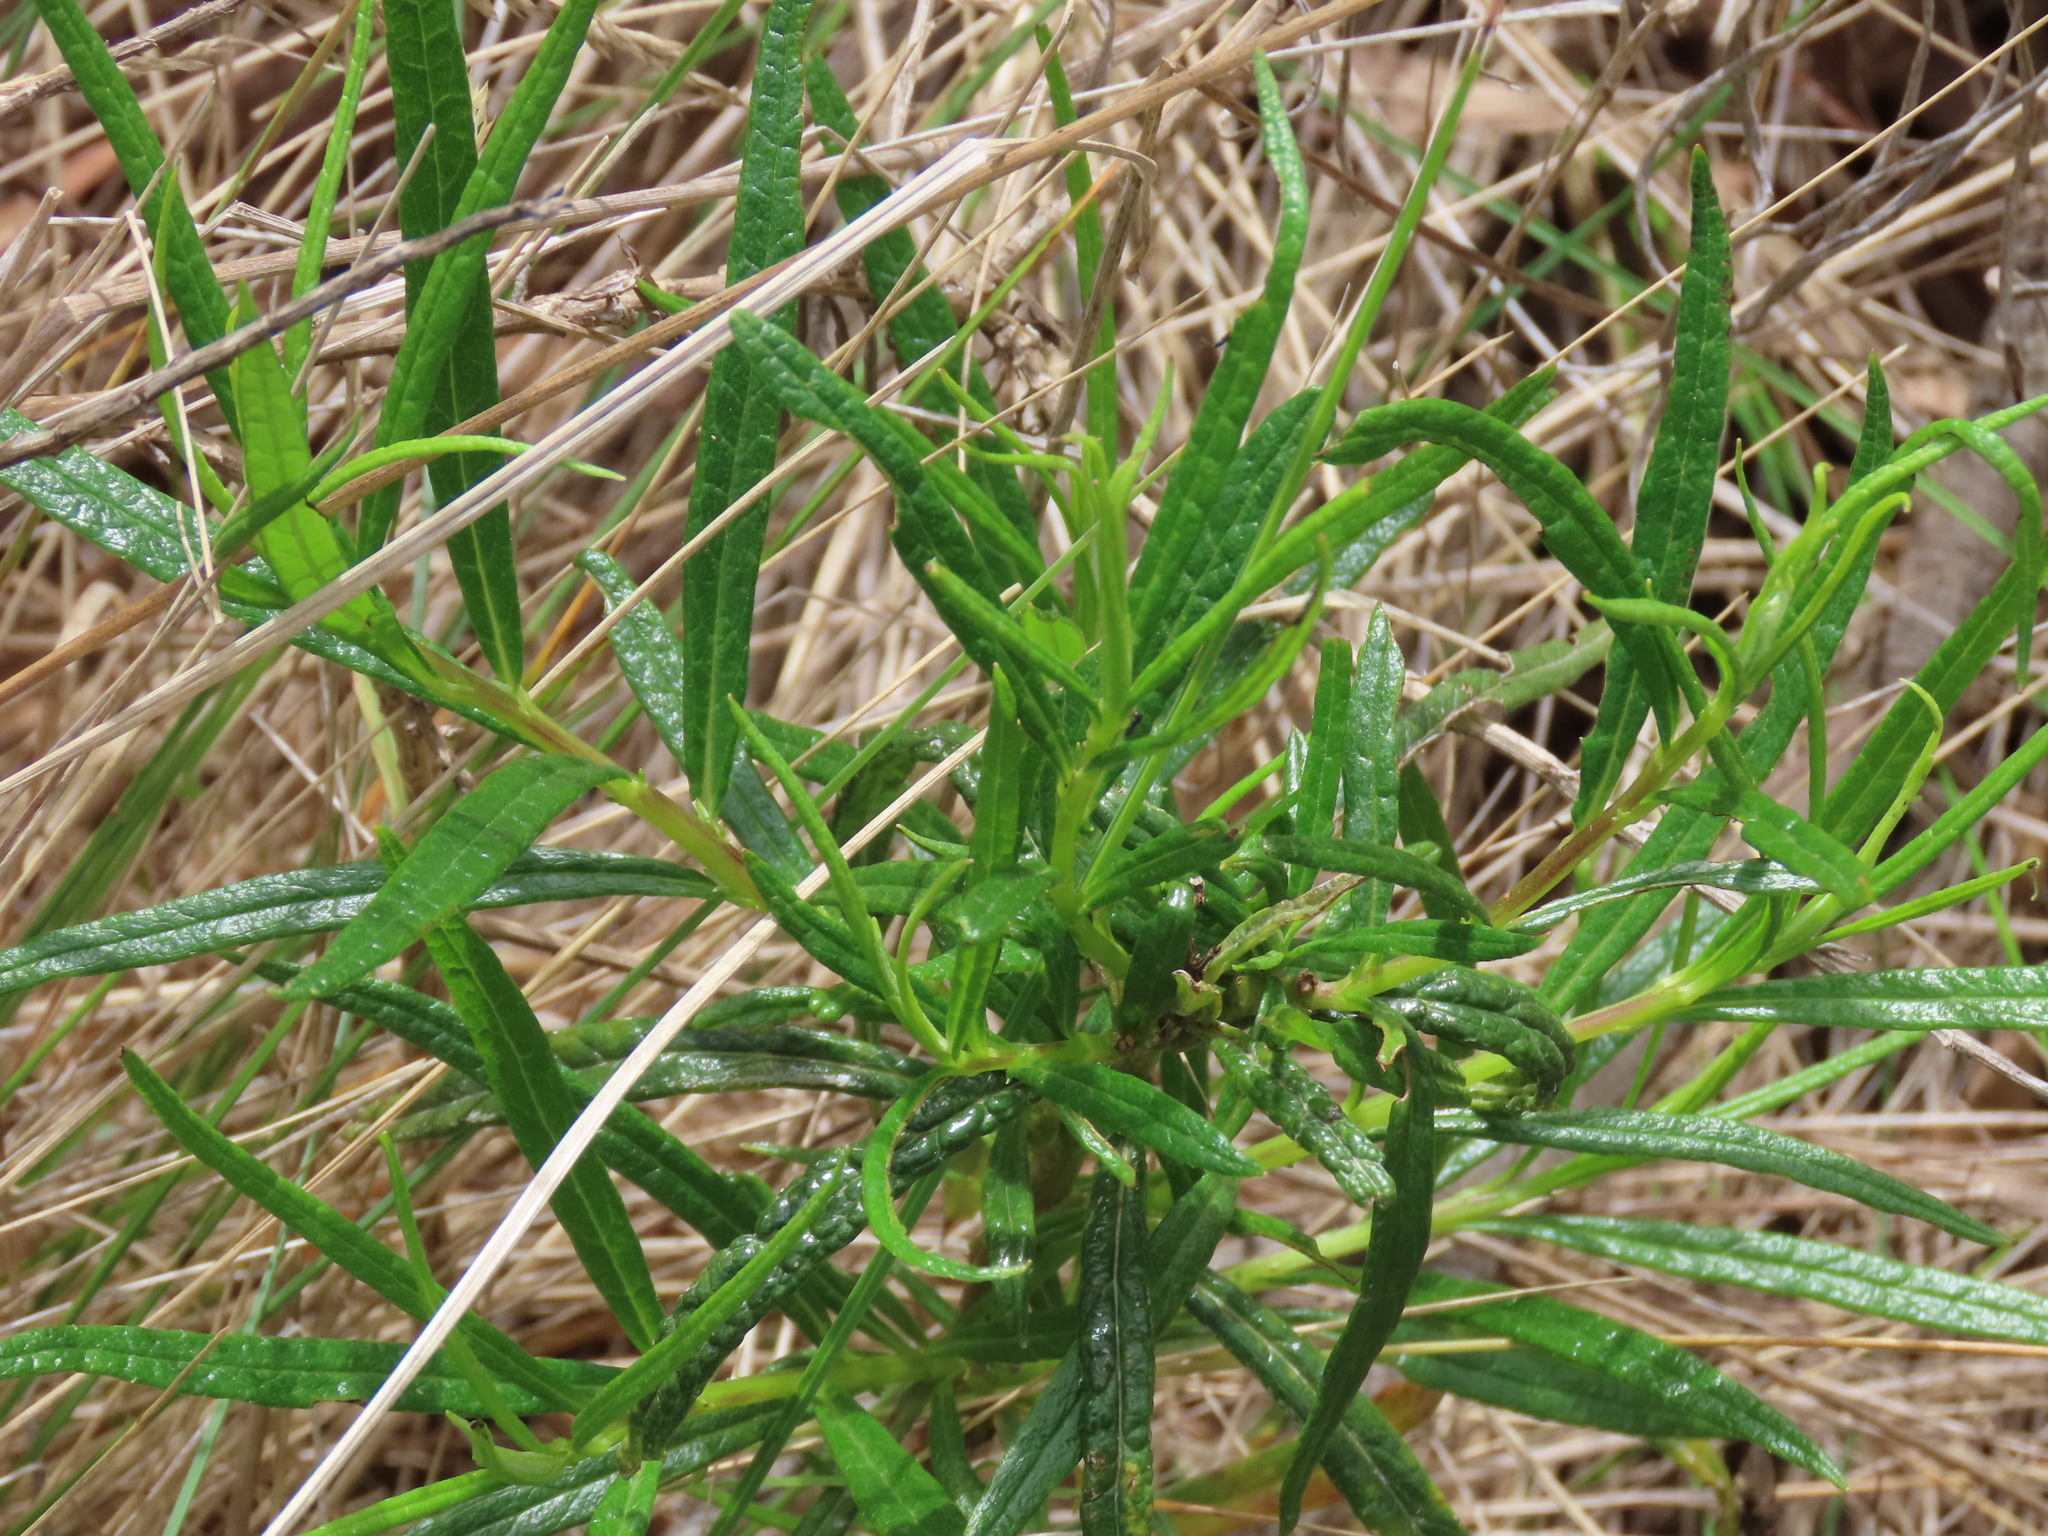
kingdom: Plantae
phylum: Tracheophyta
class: Magnoliopsida
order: Asterales
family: Asteraceae
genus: Senecio
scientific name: Senecio linearifolius
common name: Fireweed groundsel
